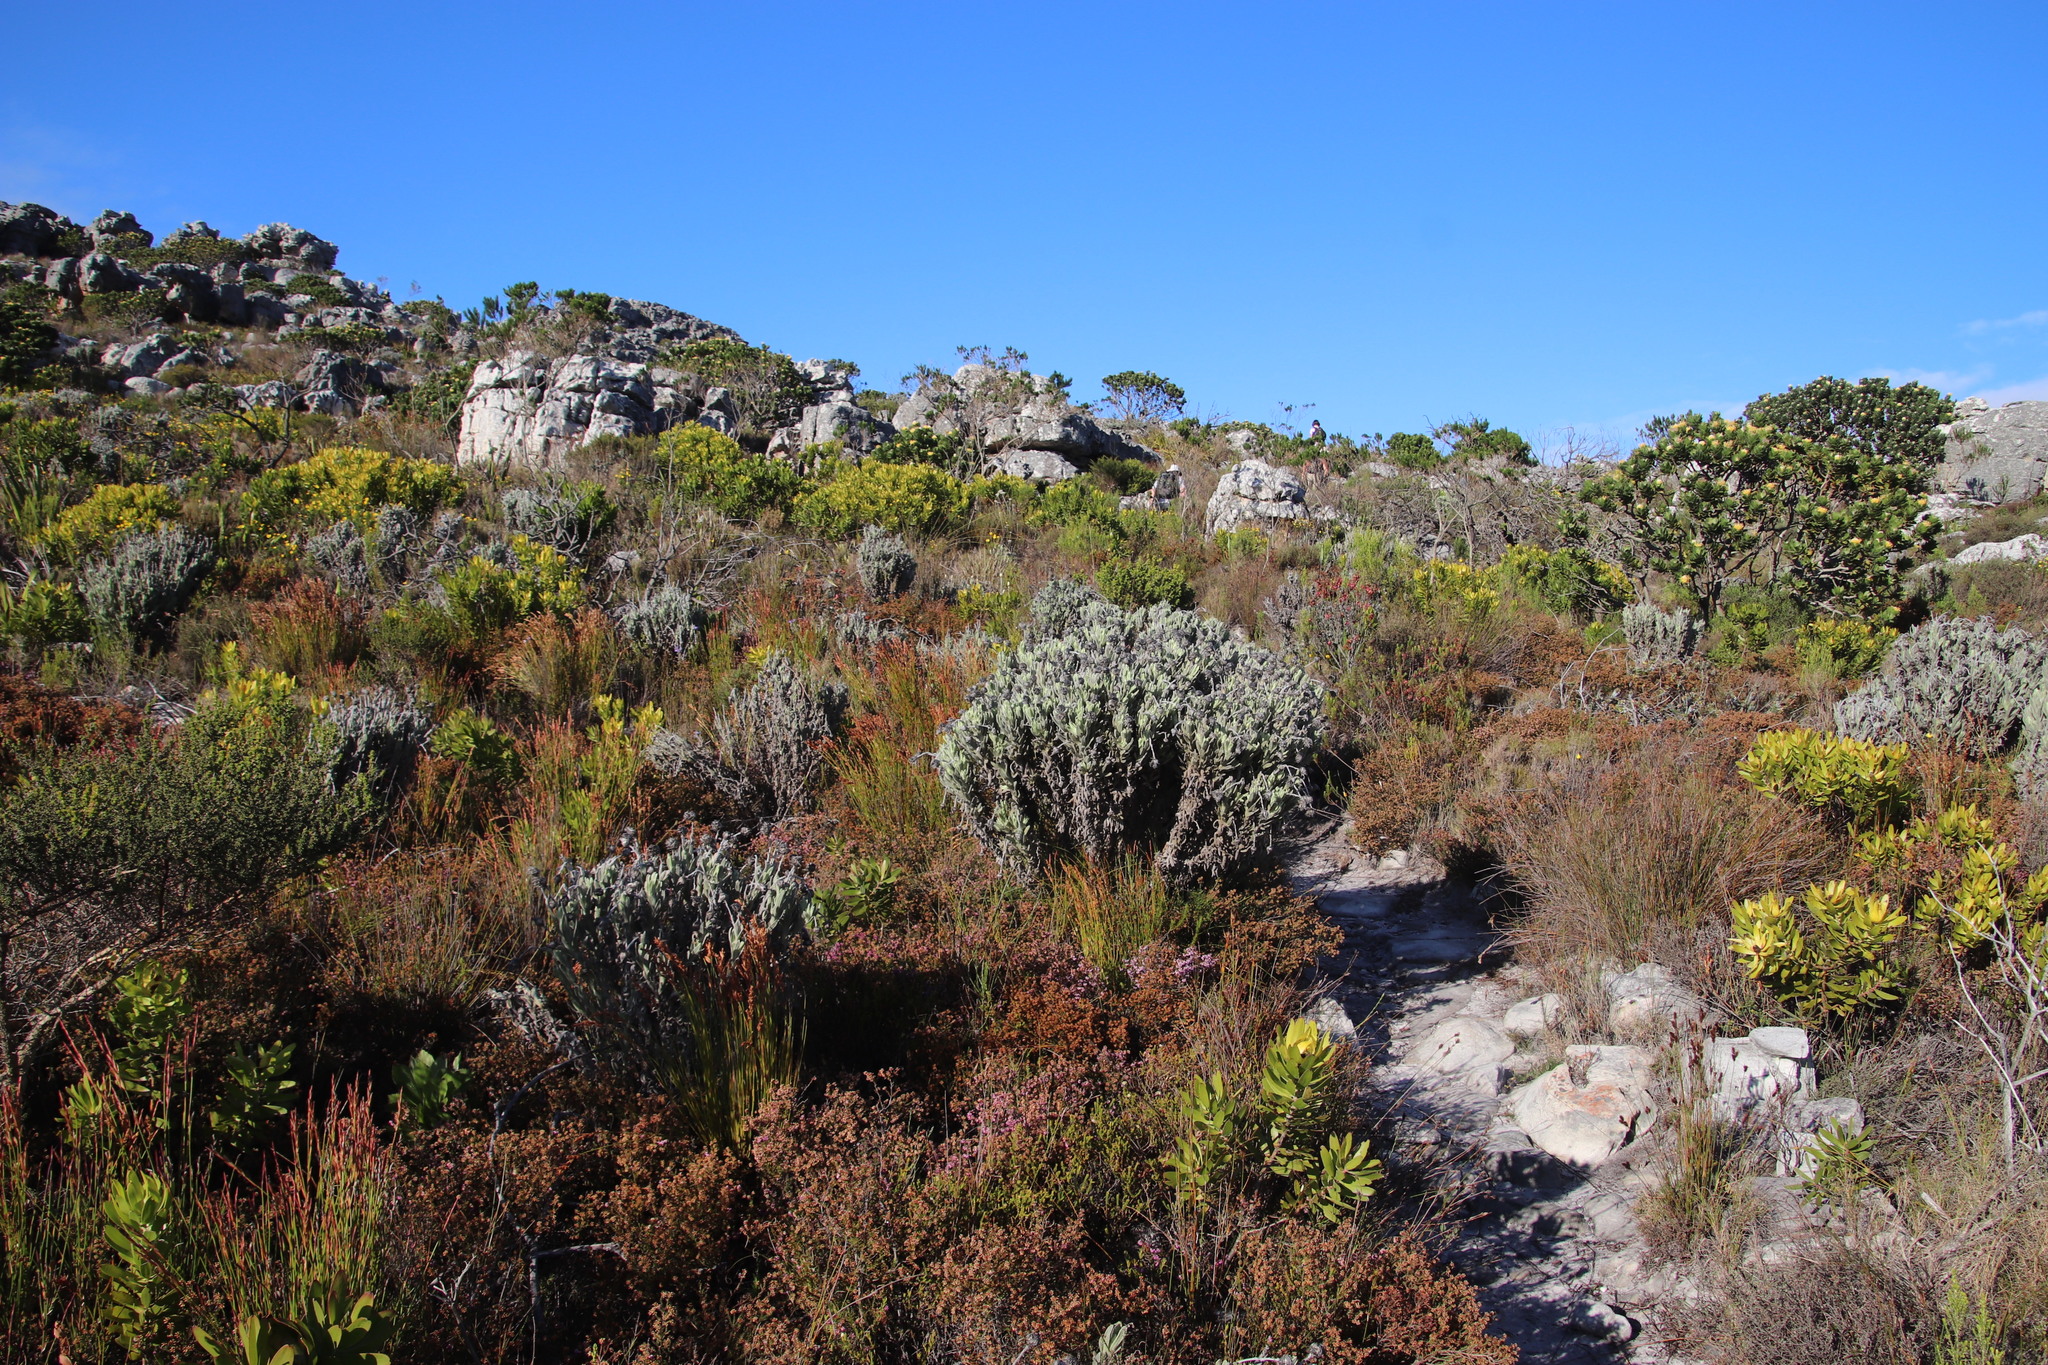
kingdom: Plantae
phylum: Tracheophyta
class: Magnoliopsida
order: Asterales
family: Asteraceae
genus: Syncarpha
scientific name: Syncarpha vestita
